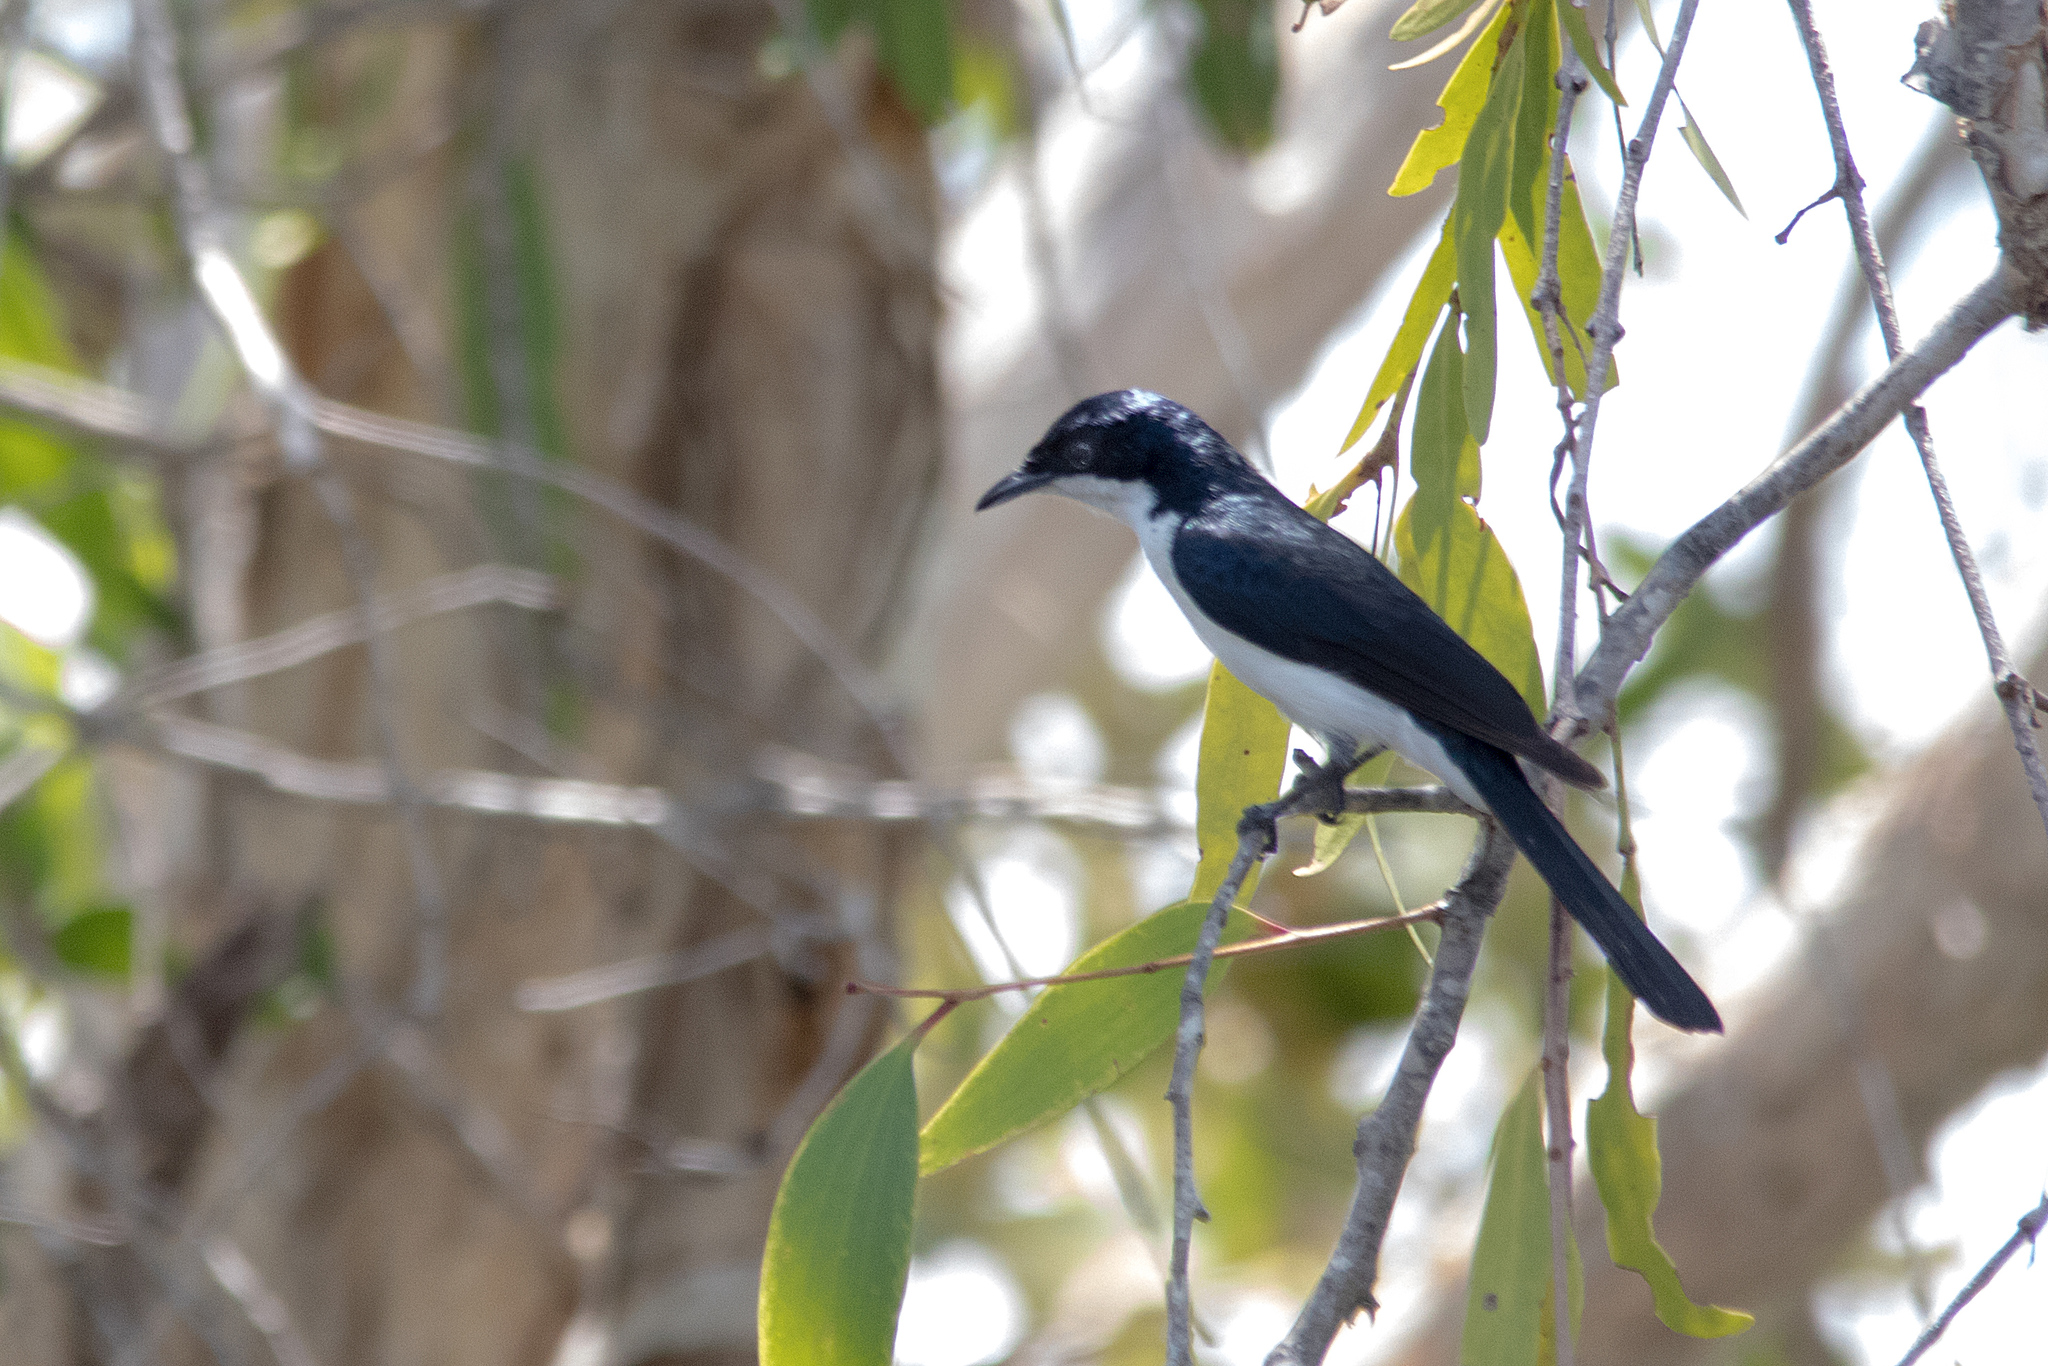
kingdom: Animalia
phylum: Chordata
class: Aves
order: Passeriformes
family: Monarchidae
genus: Myiagra
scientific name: Myiagra nana
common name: Paperbark flycatcher
